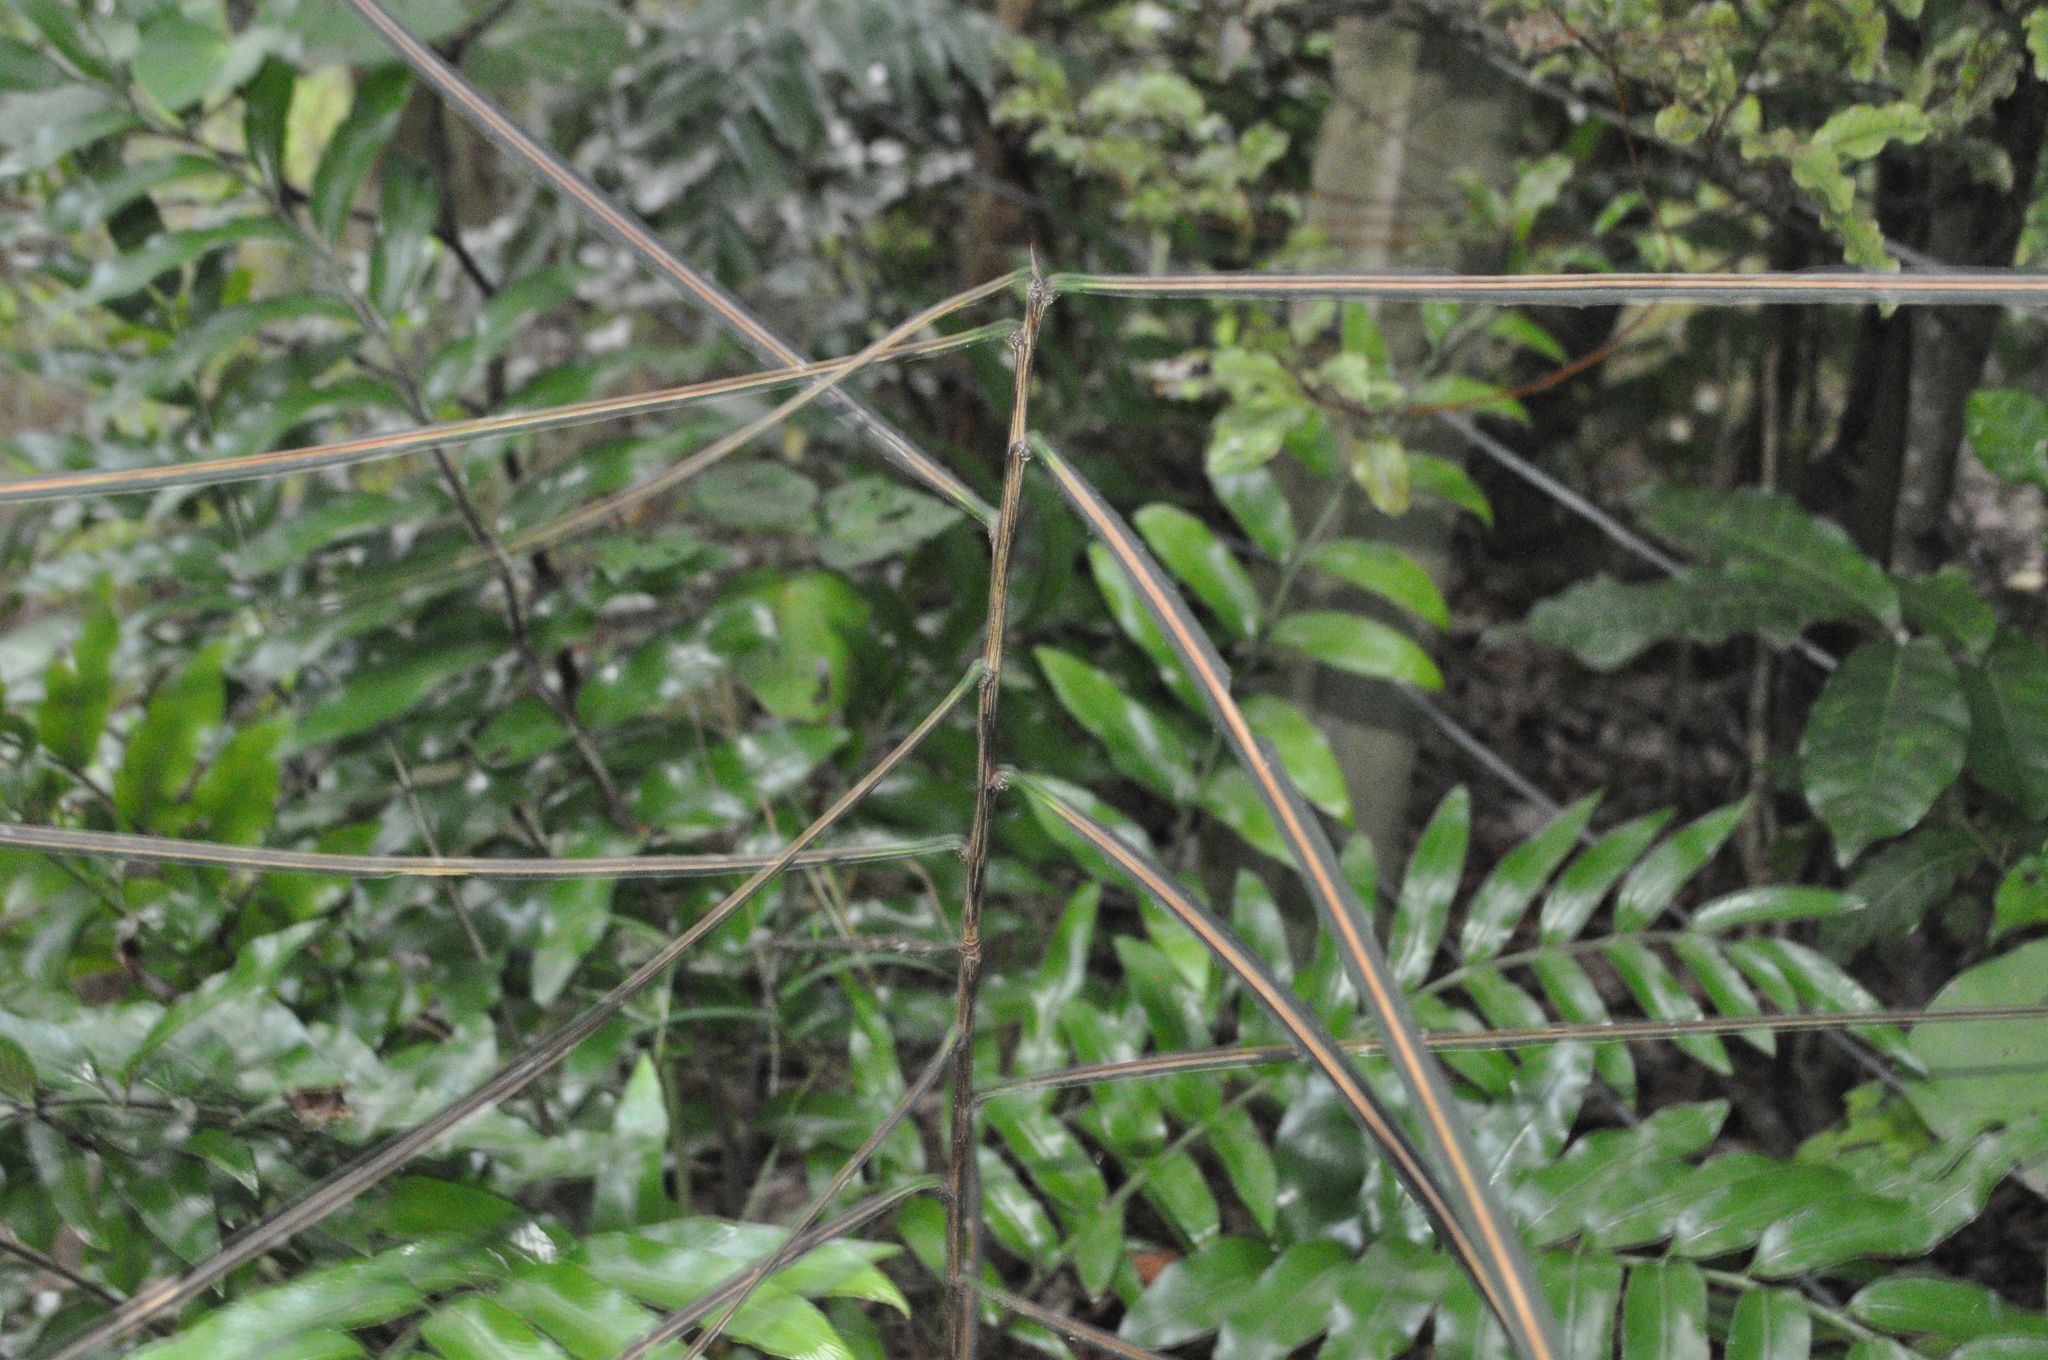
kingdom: Plantae
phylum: Tracheophyta
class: Polypodiopsida
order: Polypodiales
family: Aspleniaceae
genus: Asplenium
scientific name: Asplenium oblongifolium
